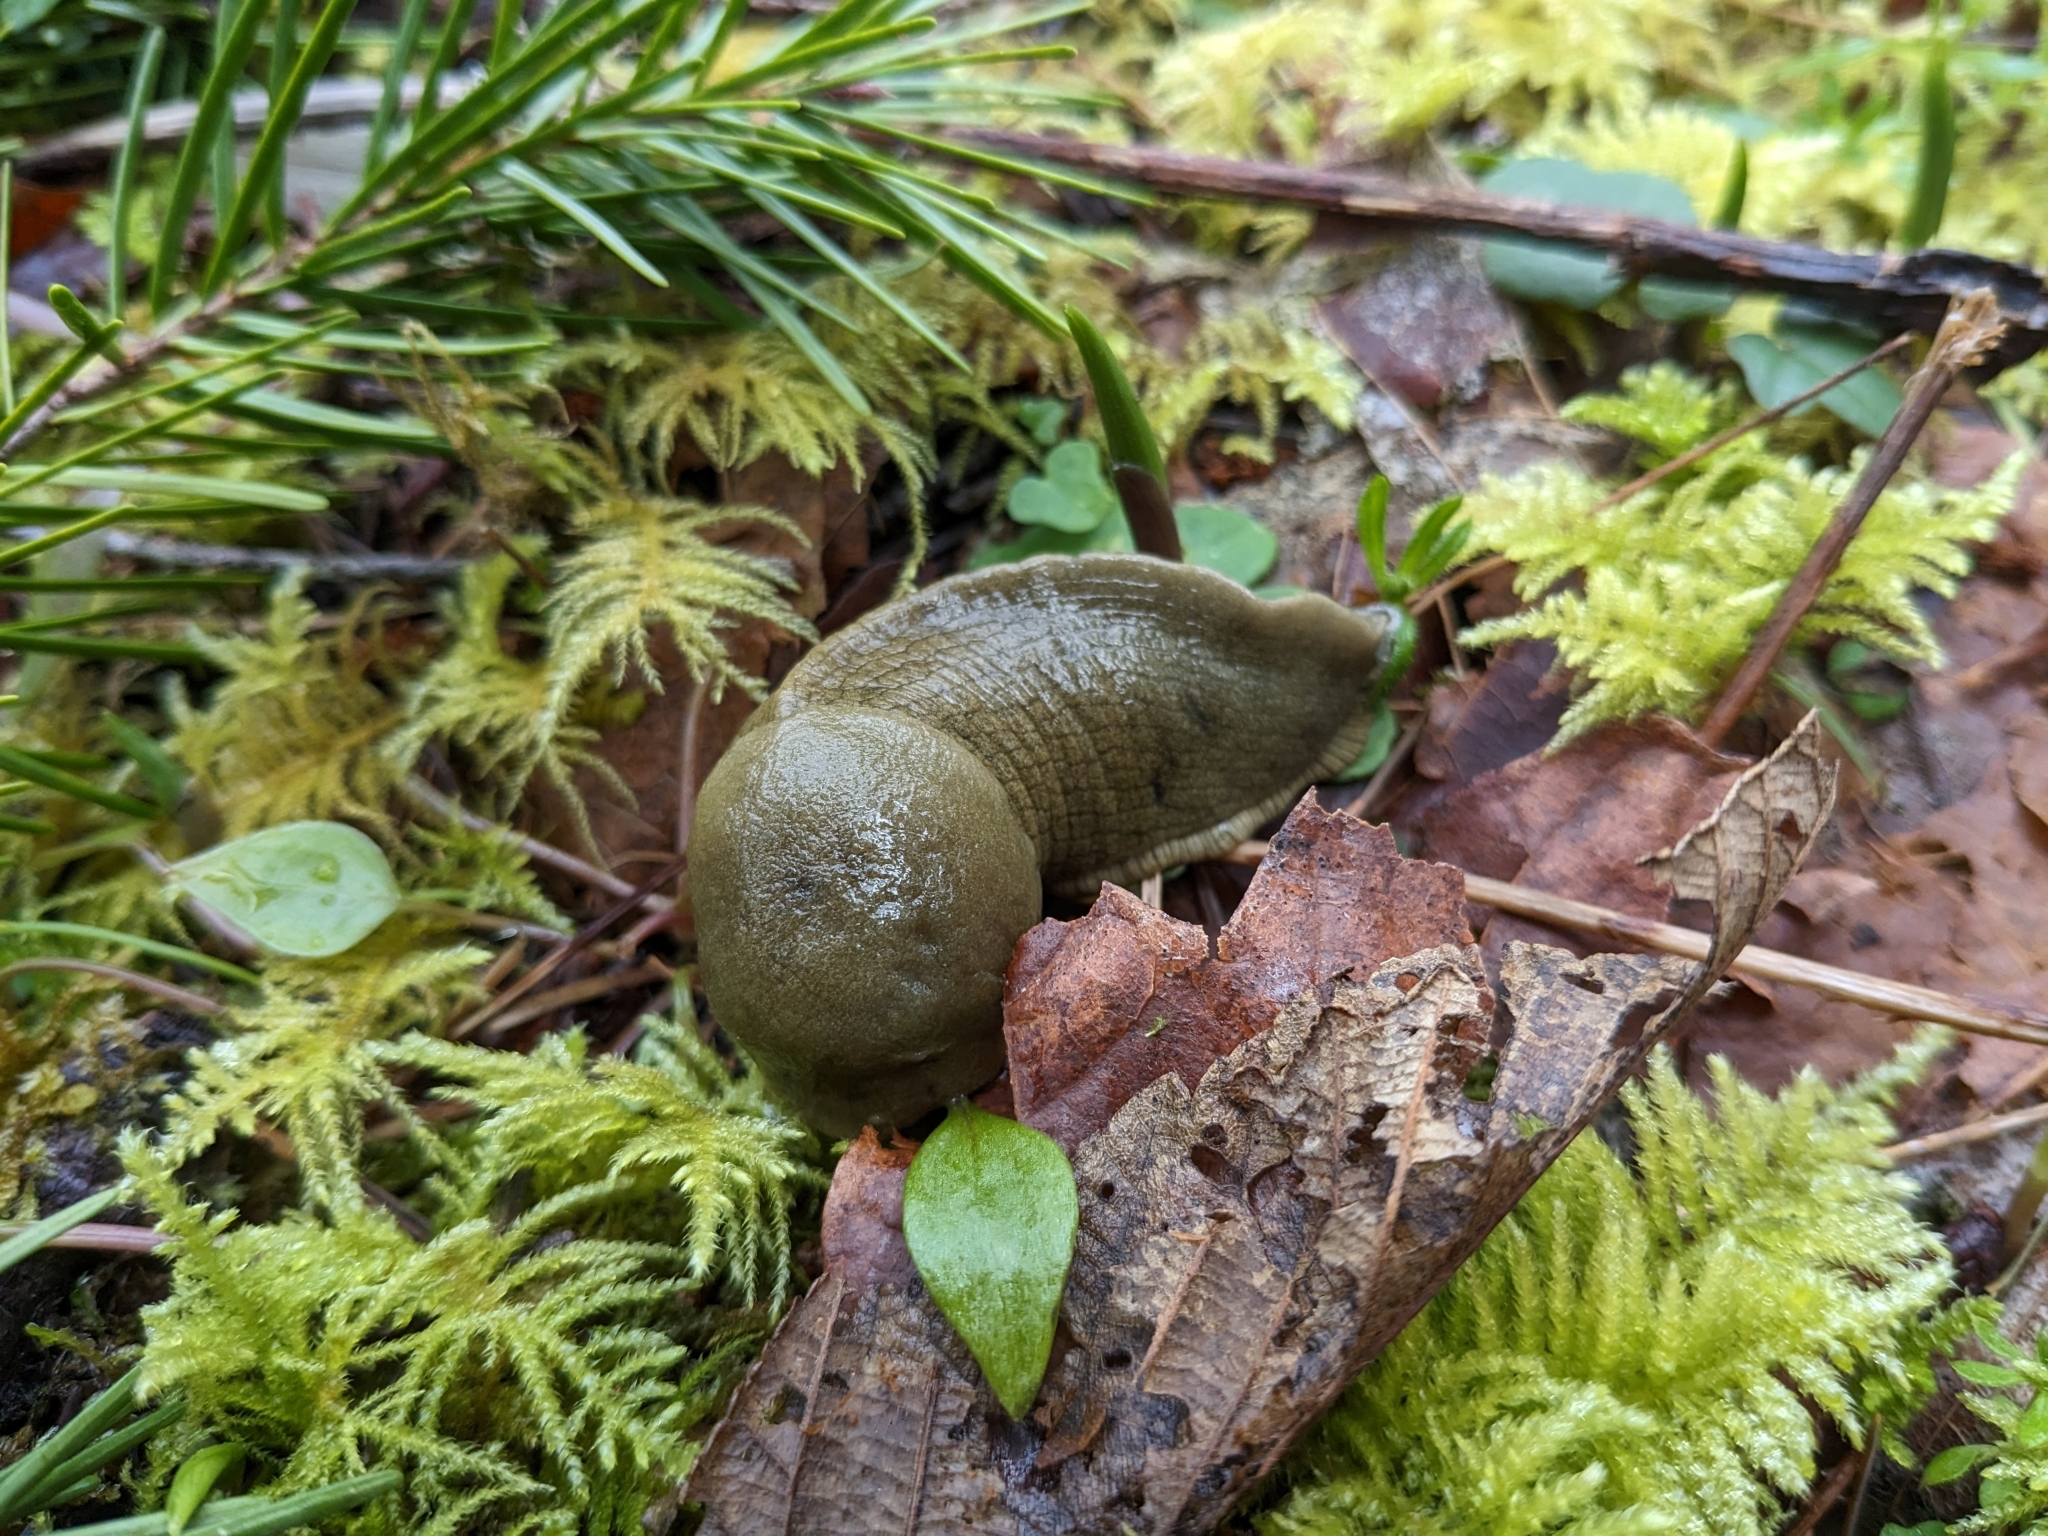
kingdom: Animalia
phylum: Mollusca
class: Gastropoda
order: Stylommatophora
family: Ariolimacidae
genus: Ariolimax
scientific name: Ariolimax columbianus
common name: Pacific banana slug
